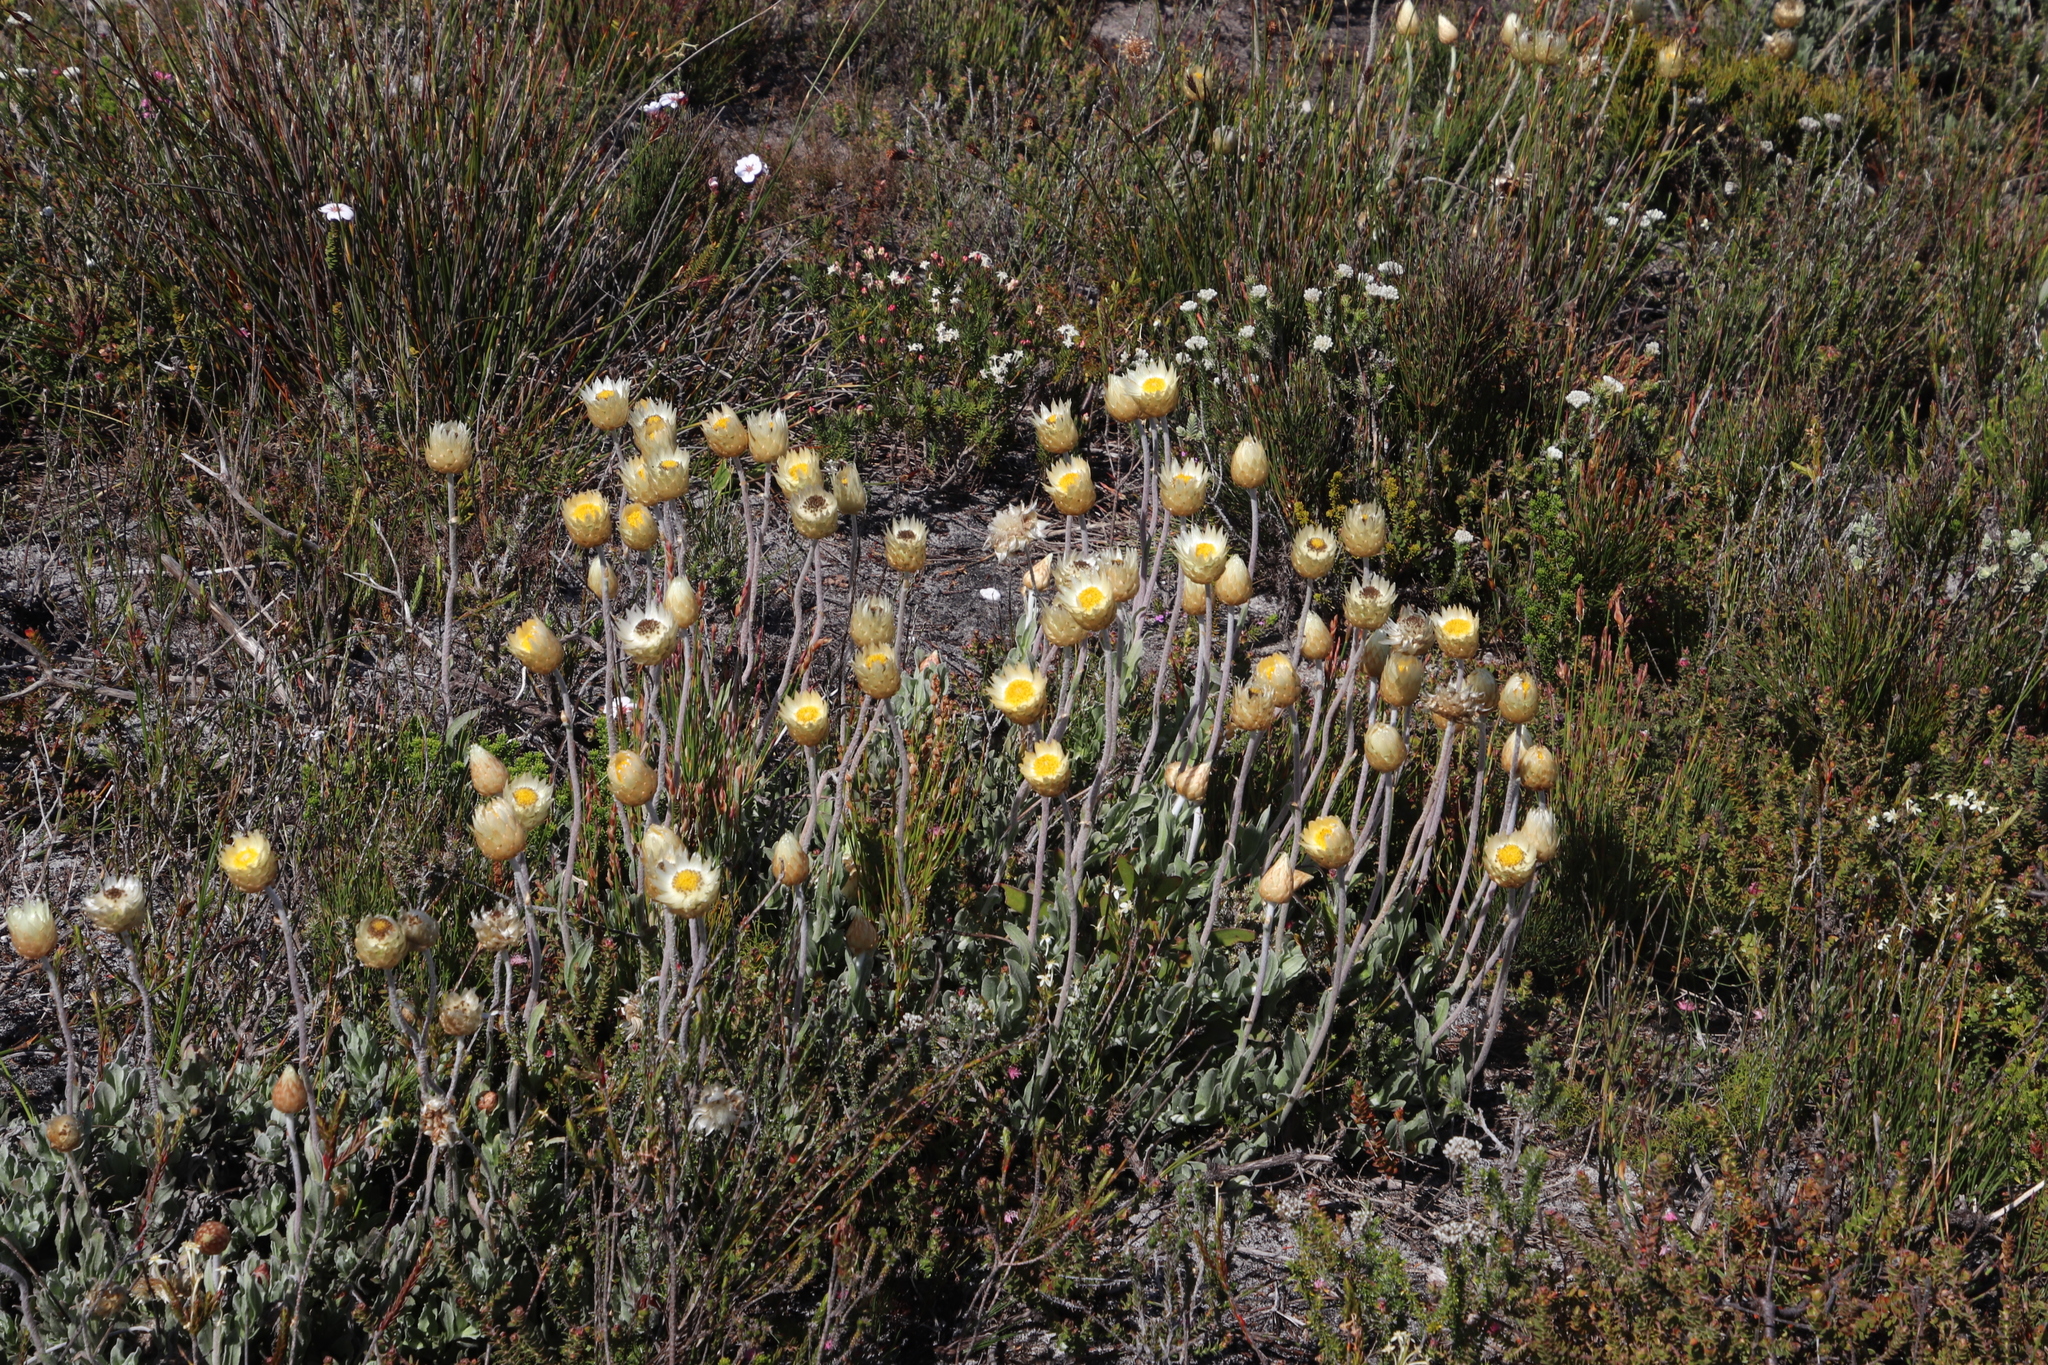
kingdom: Plantae
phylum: Tracheophyta
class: Magnoliopsida
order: Asterales
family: Asteraceae
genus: Syncarpha
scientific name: Syncarpha speciosissima
